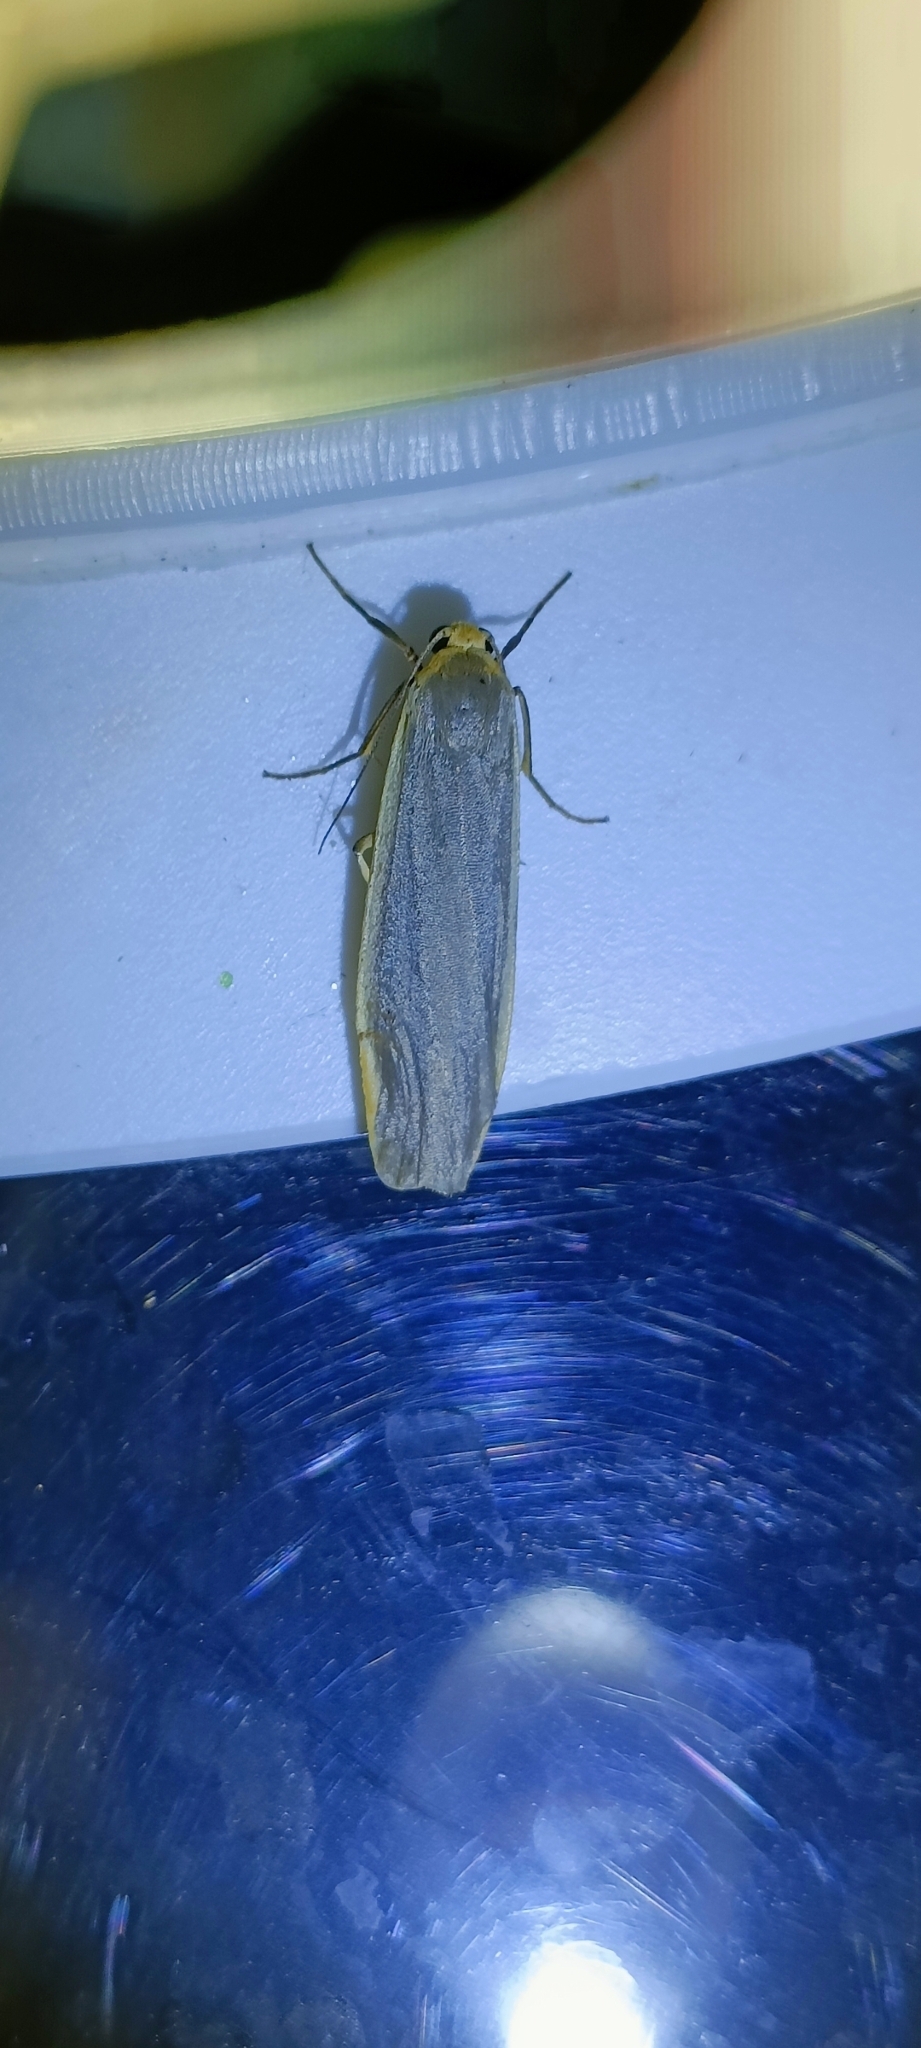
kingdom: Animalia
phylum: Arthropoda
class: Insecta
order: Lepidoptera
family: Erebidae
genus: Nyea
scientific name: Nyea lurideola
